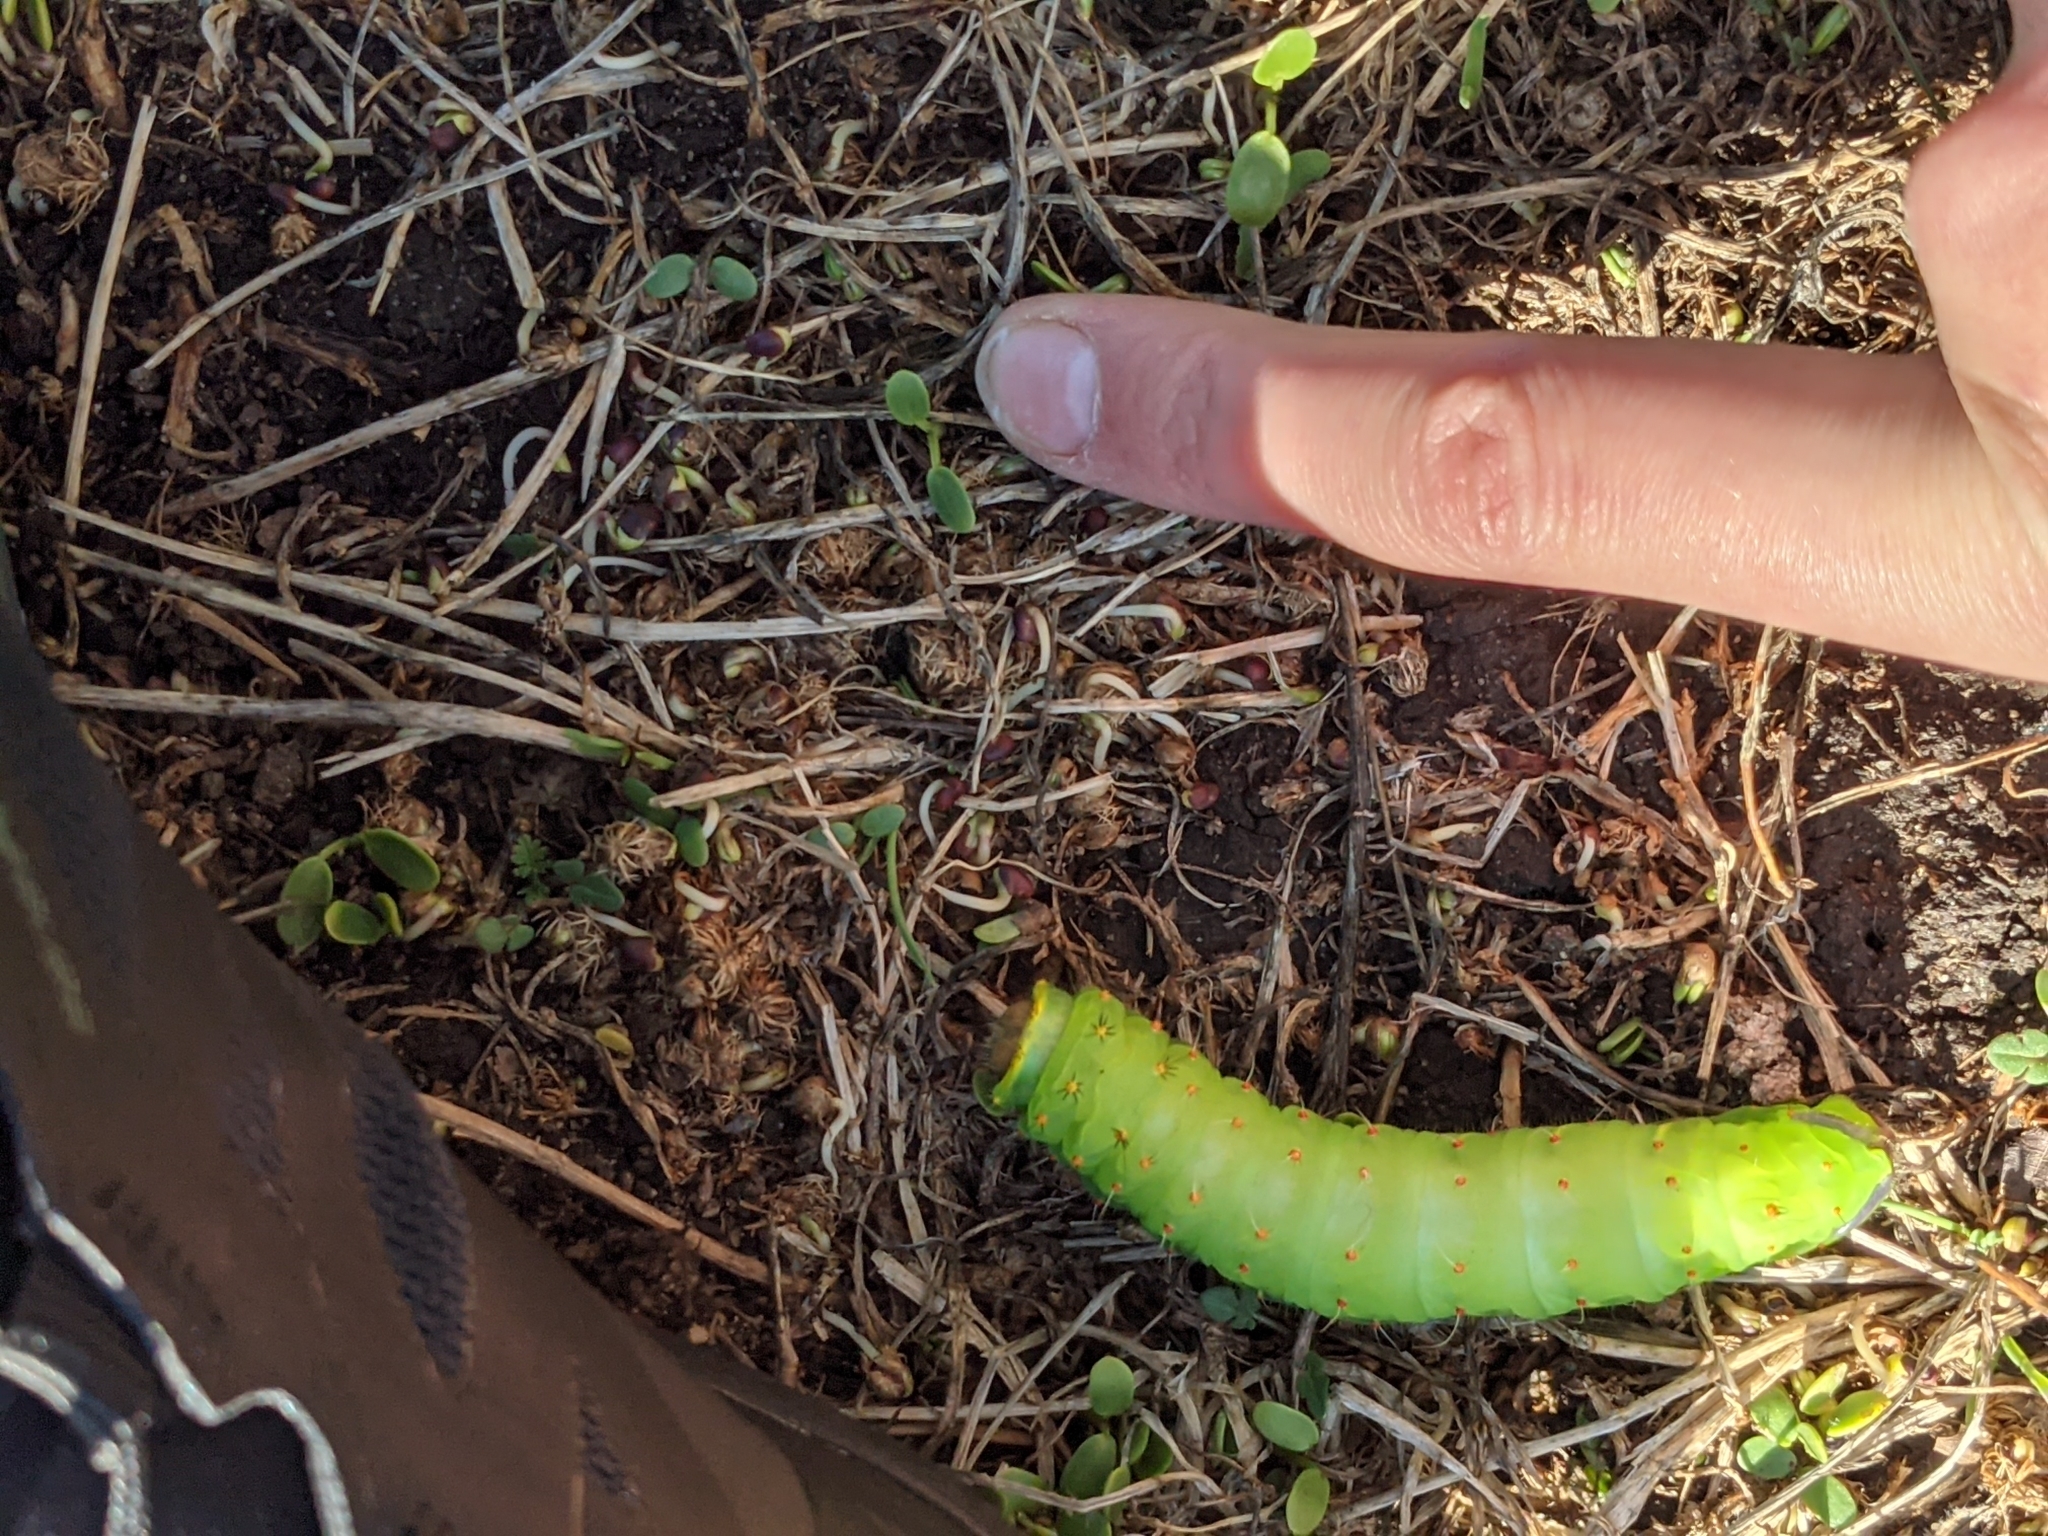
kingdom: Animalia
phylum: Arthropoda
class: Insecta
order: Lepidoptera
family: Saturniidae
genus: Antheraea
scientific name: Antheraea polyphemus
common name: Polyphemus moth
